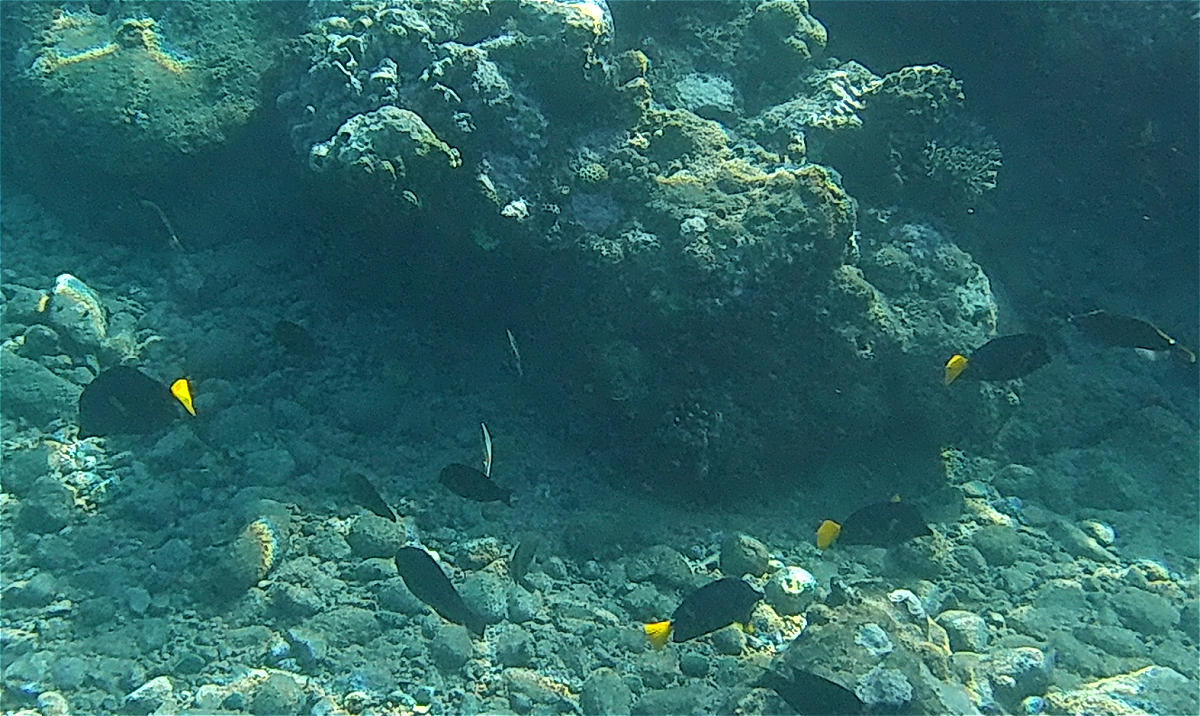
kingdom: Animalia
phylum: Chordata
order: Perciformes
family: Acanthuridae
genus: Zebrasoma
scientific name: Zebrasoma xanthurum
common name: Purple tang
